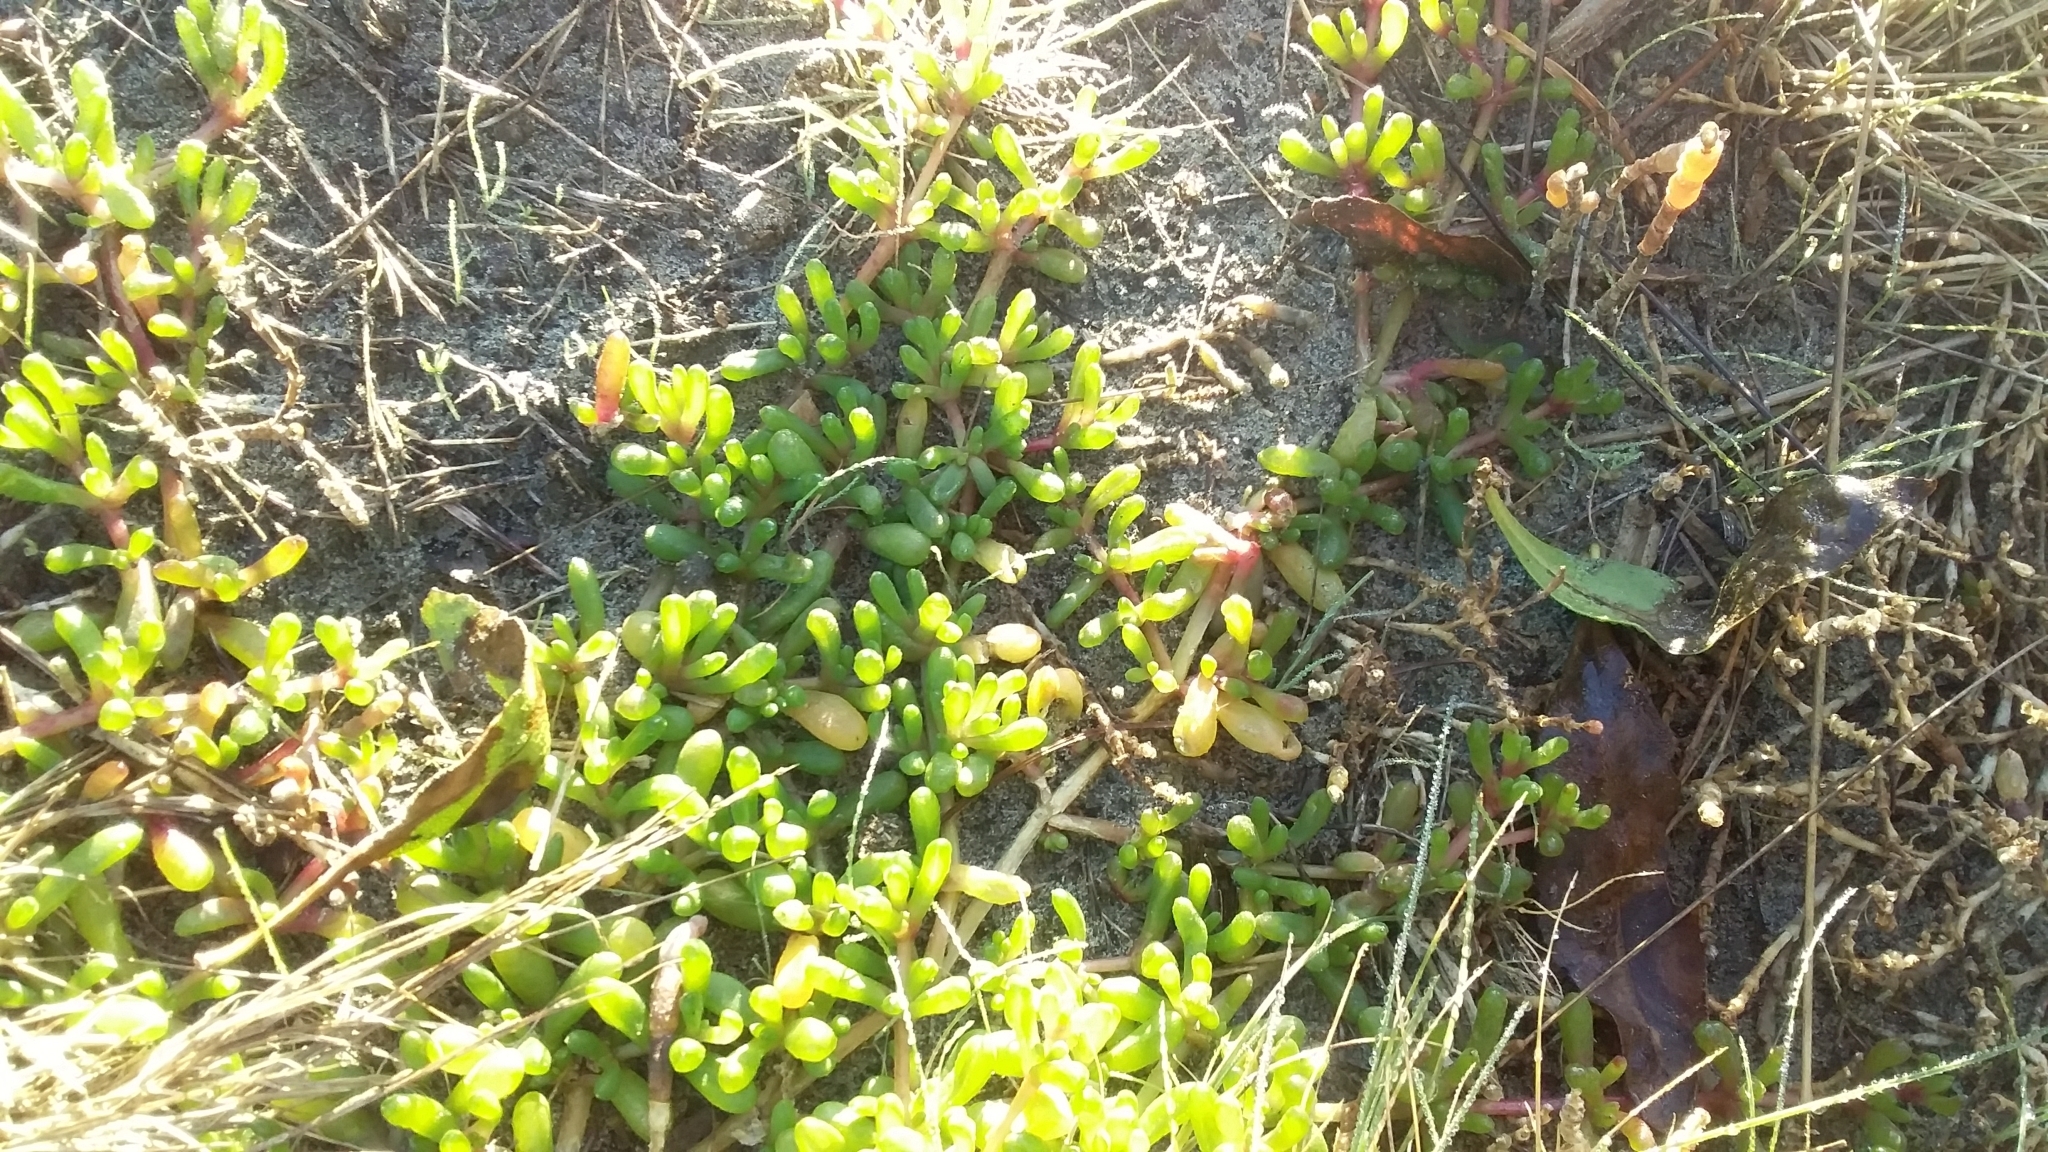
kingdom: Plantae
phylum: Tracheophyta
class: Magnoliopsida
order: Caryophyllales
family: Aizoaceae
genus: Disphyma
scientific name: Disphyma clavellatum
